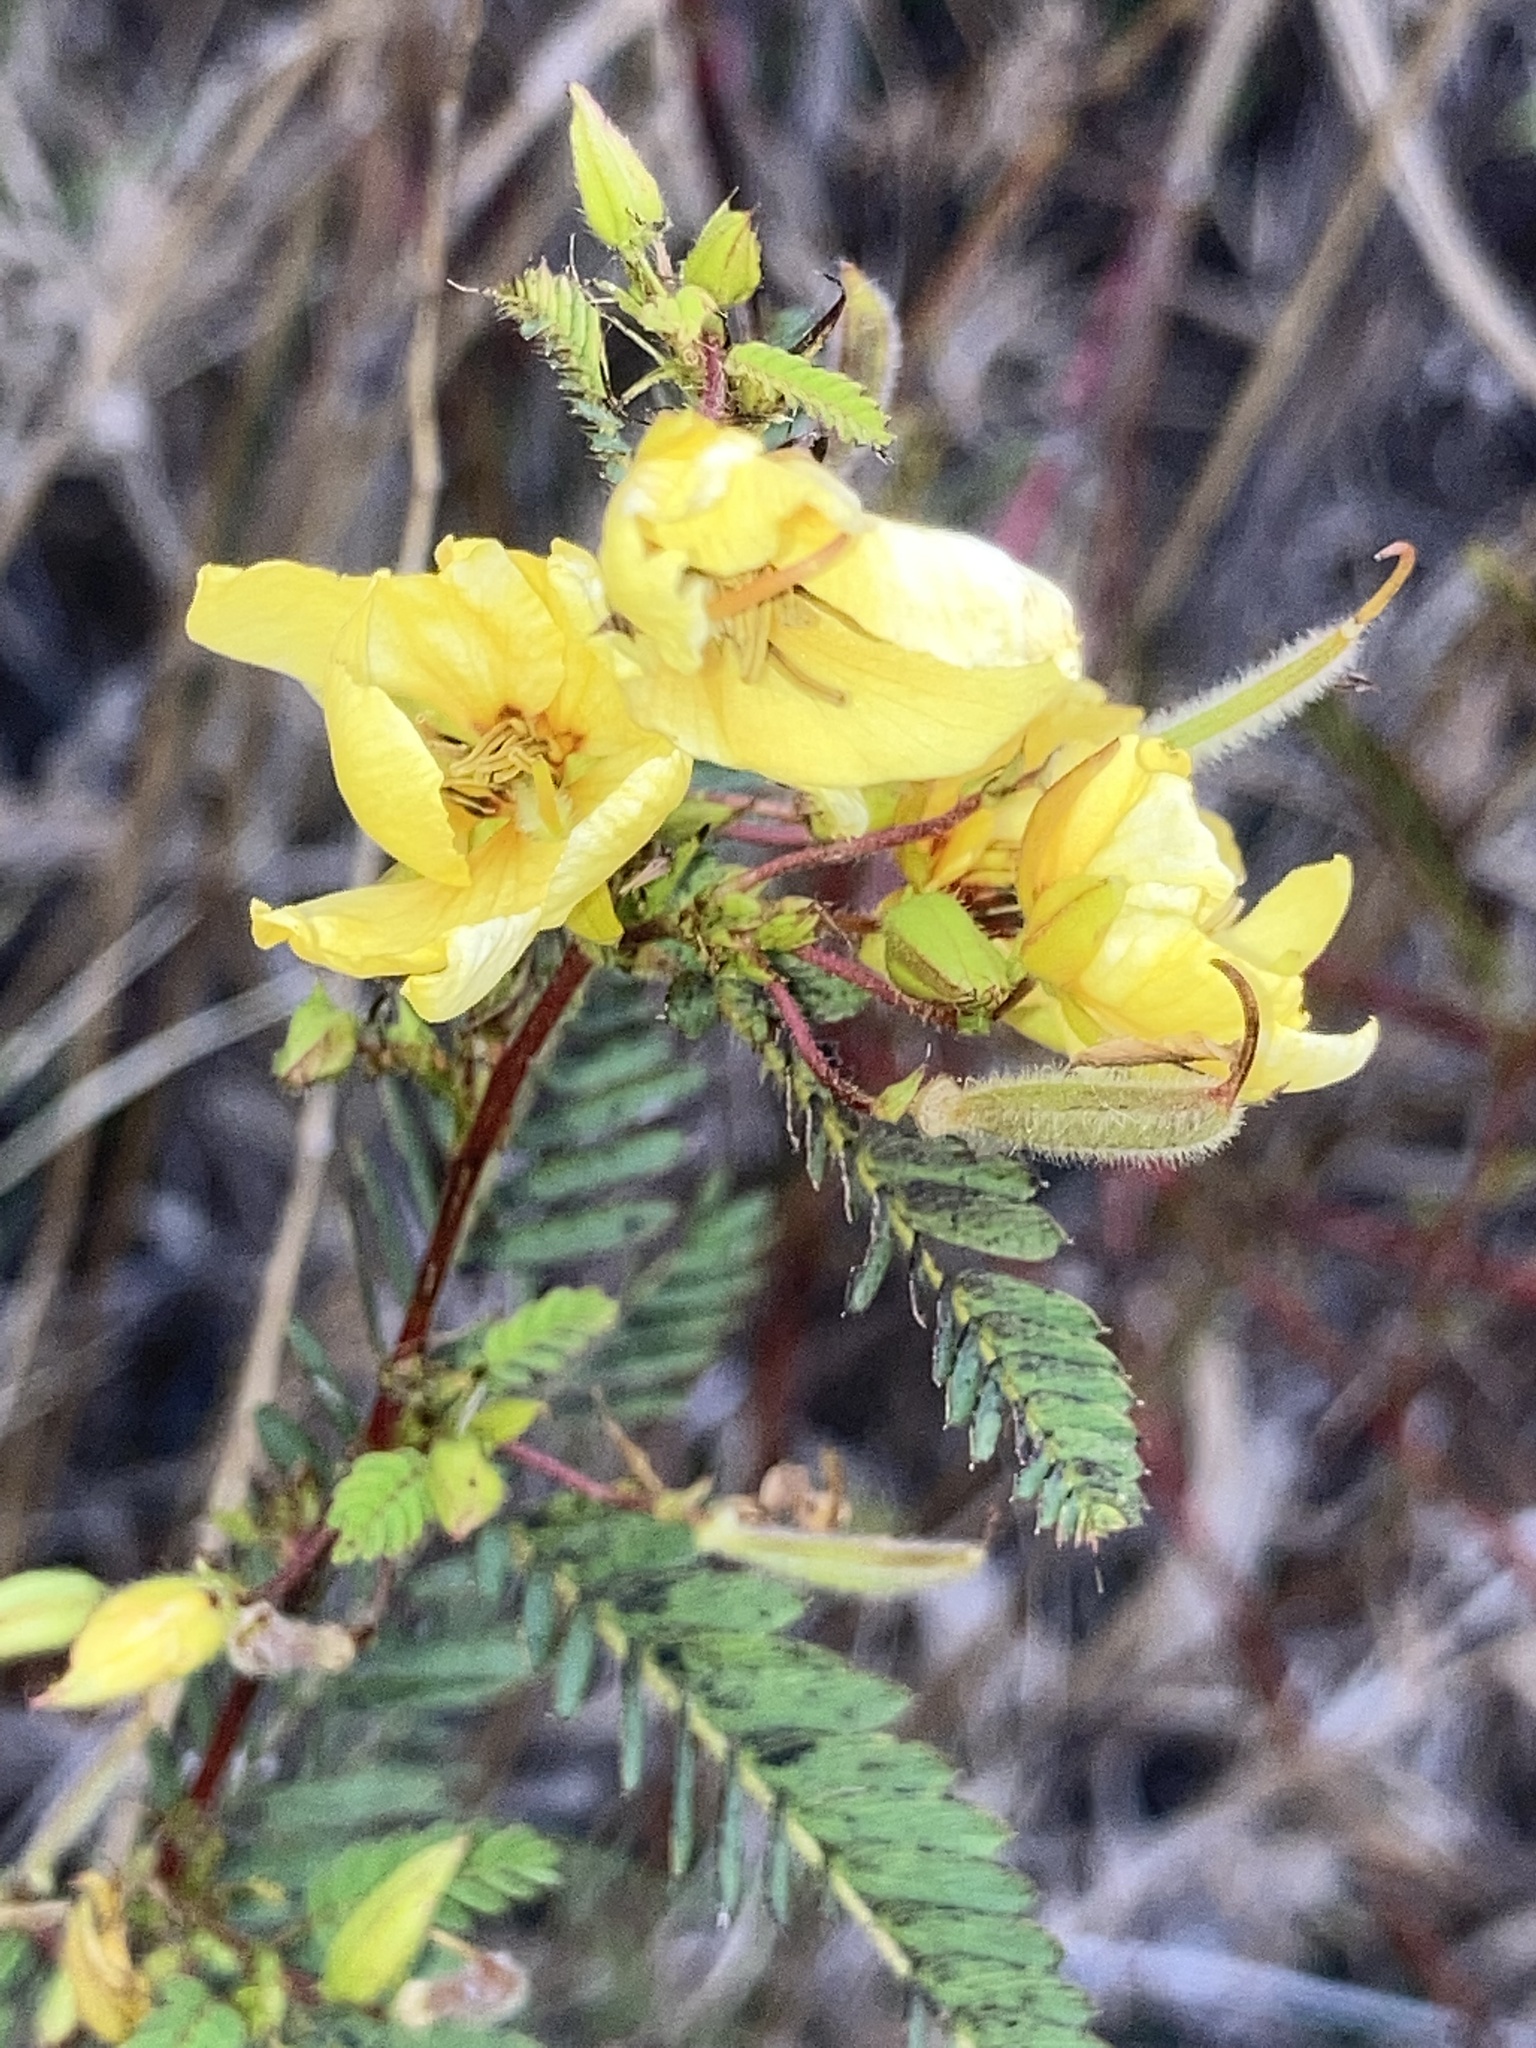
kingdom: Plantae
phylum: Tracheophyta
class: Magnoliopsida
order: Fabales
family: Fabaceae
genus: Chamaecrista
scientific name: Chamaecrista fasciculata
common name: Golden cassia
